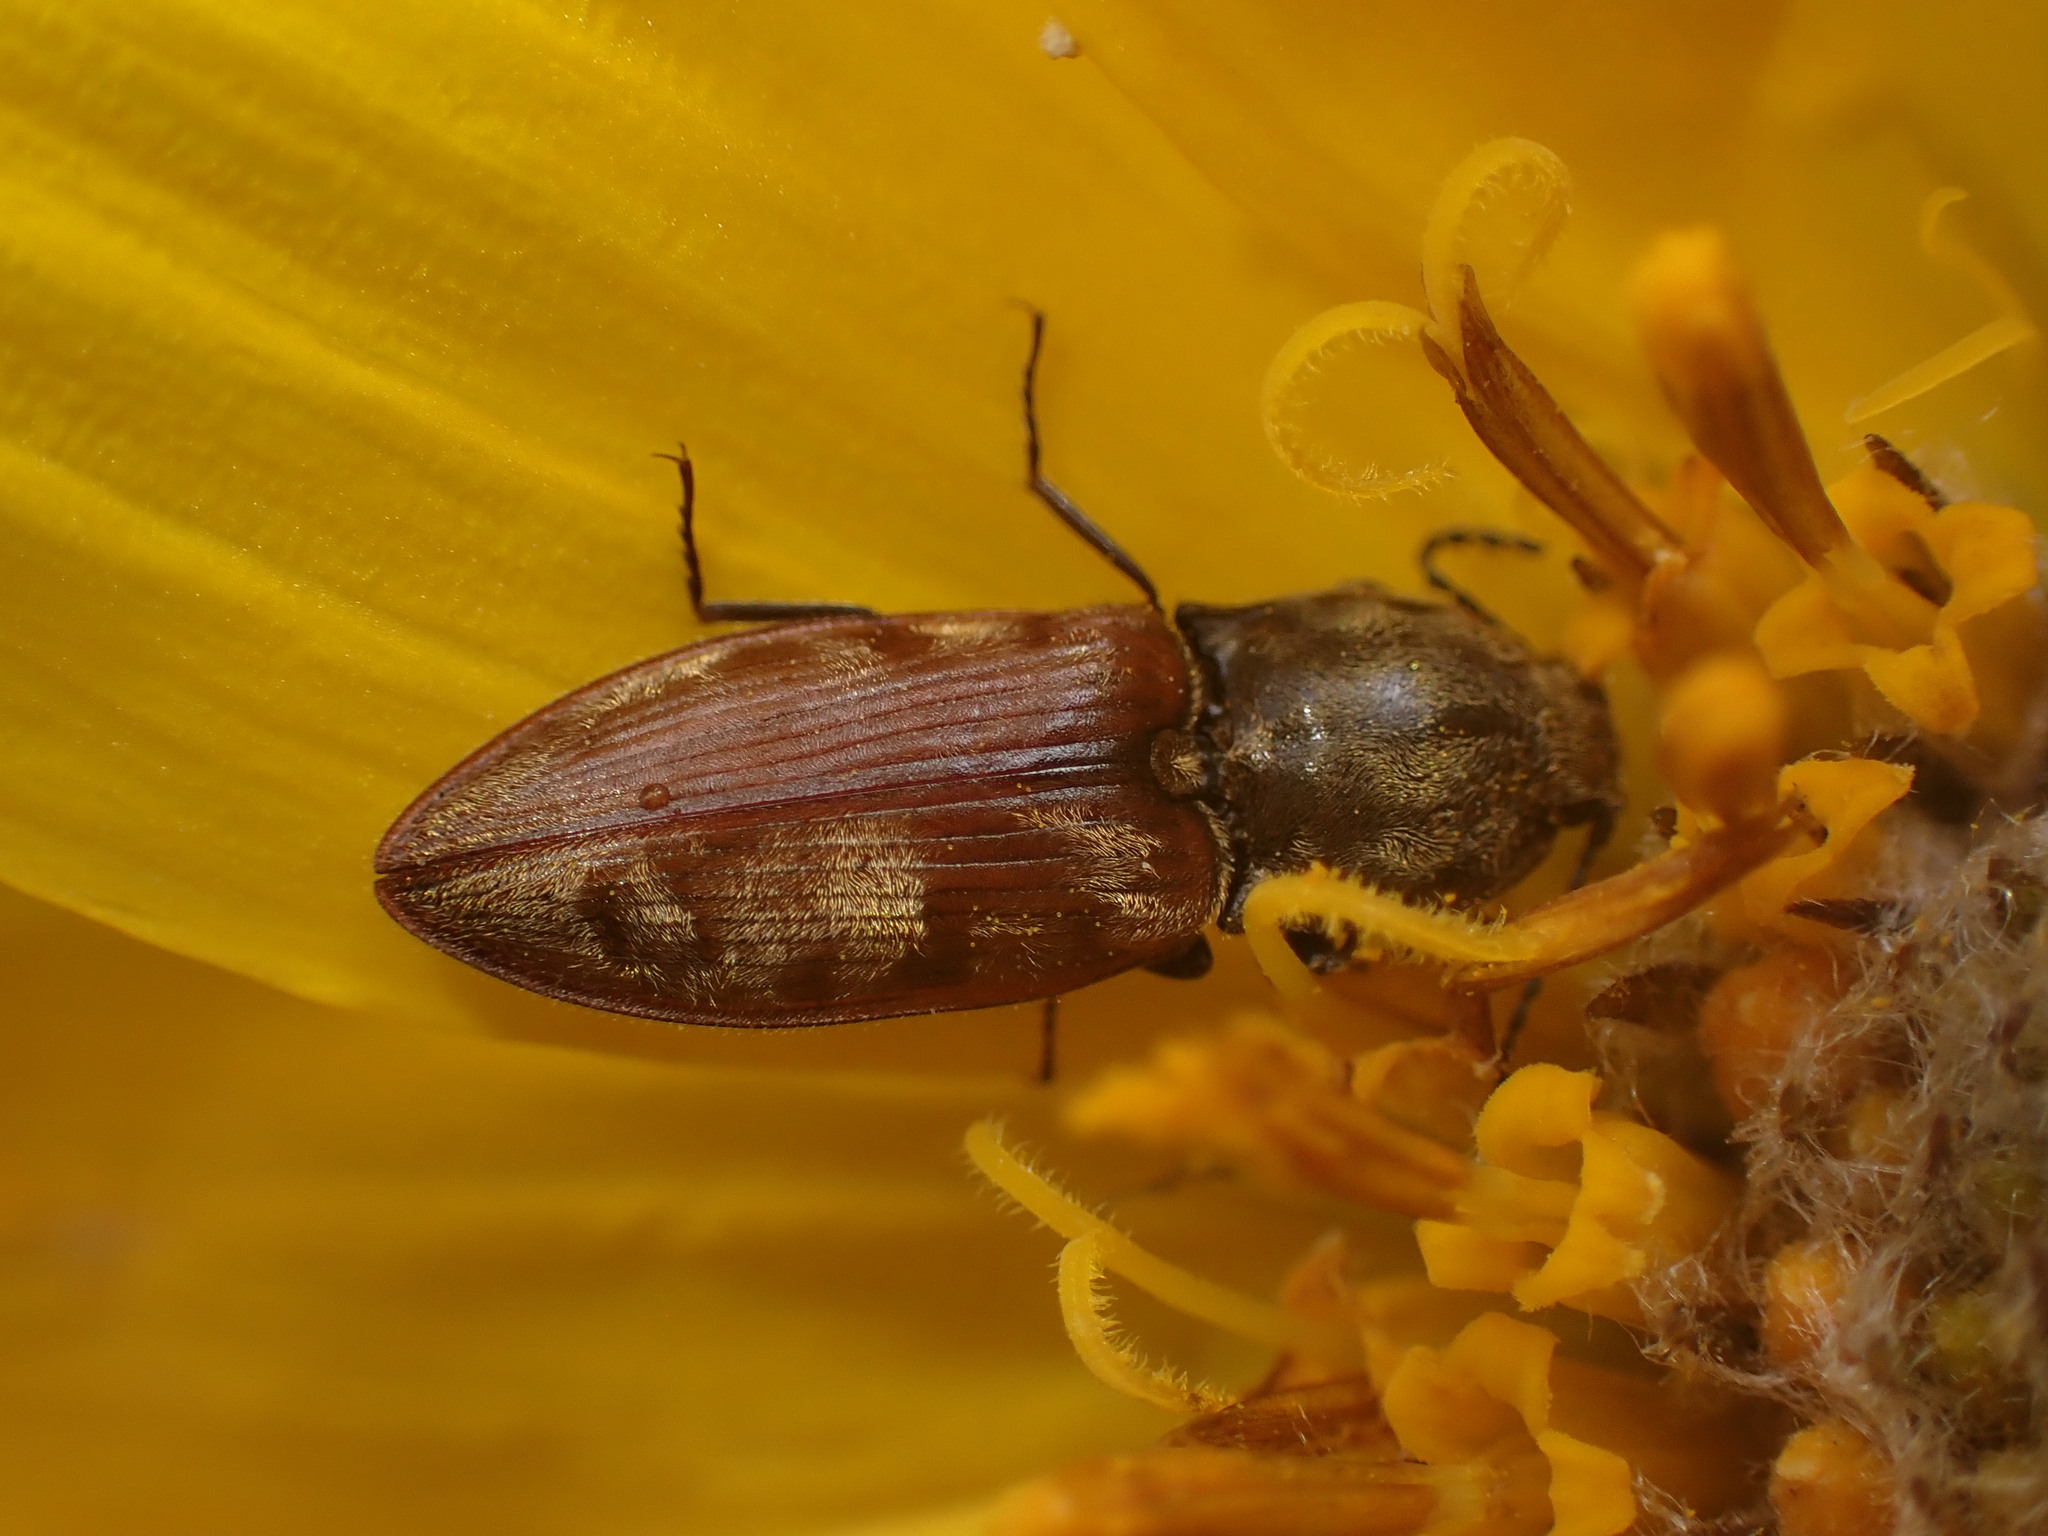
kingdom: Animalia
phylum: Arthropoda
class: Insecta
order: Coleoptera
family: Elateridae
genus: Prosternon
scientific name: Prosternon bombycinum
